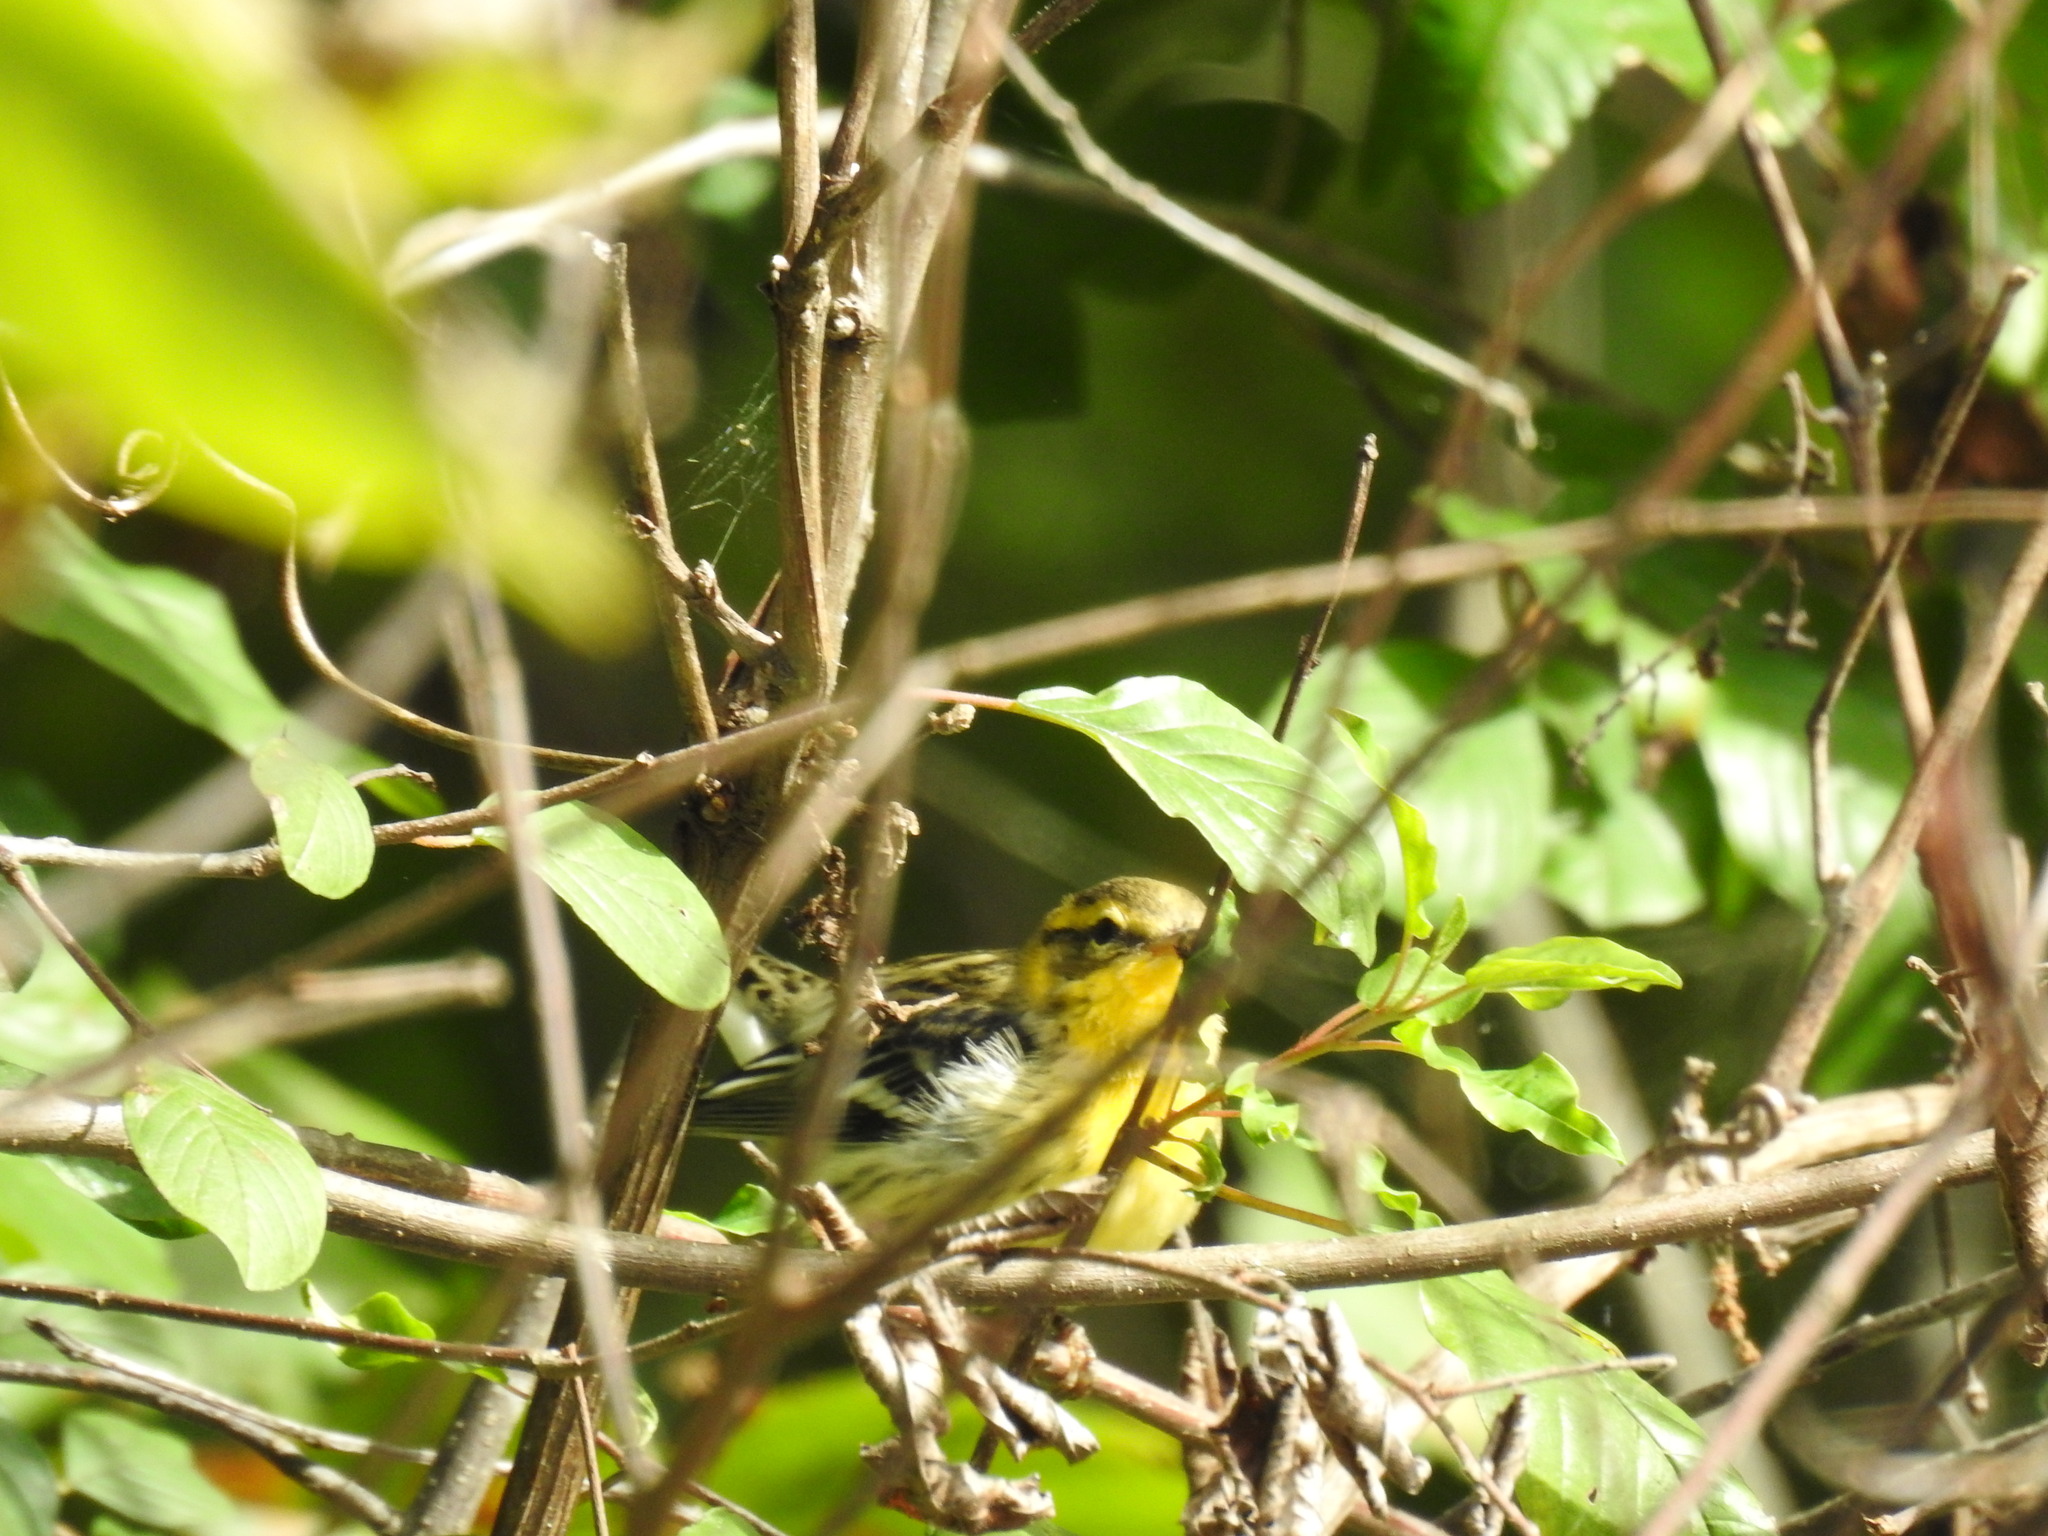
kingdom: Animalia
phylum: Chordata
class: Aves
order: Passeriformes
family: Parulidae
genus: Setophaga
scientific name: Setophaga fusca
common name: Blackburnian warbler
